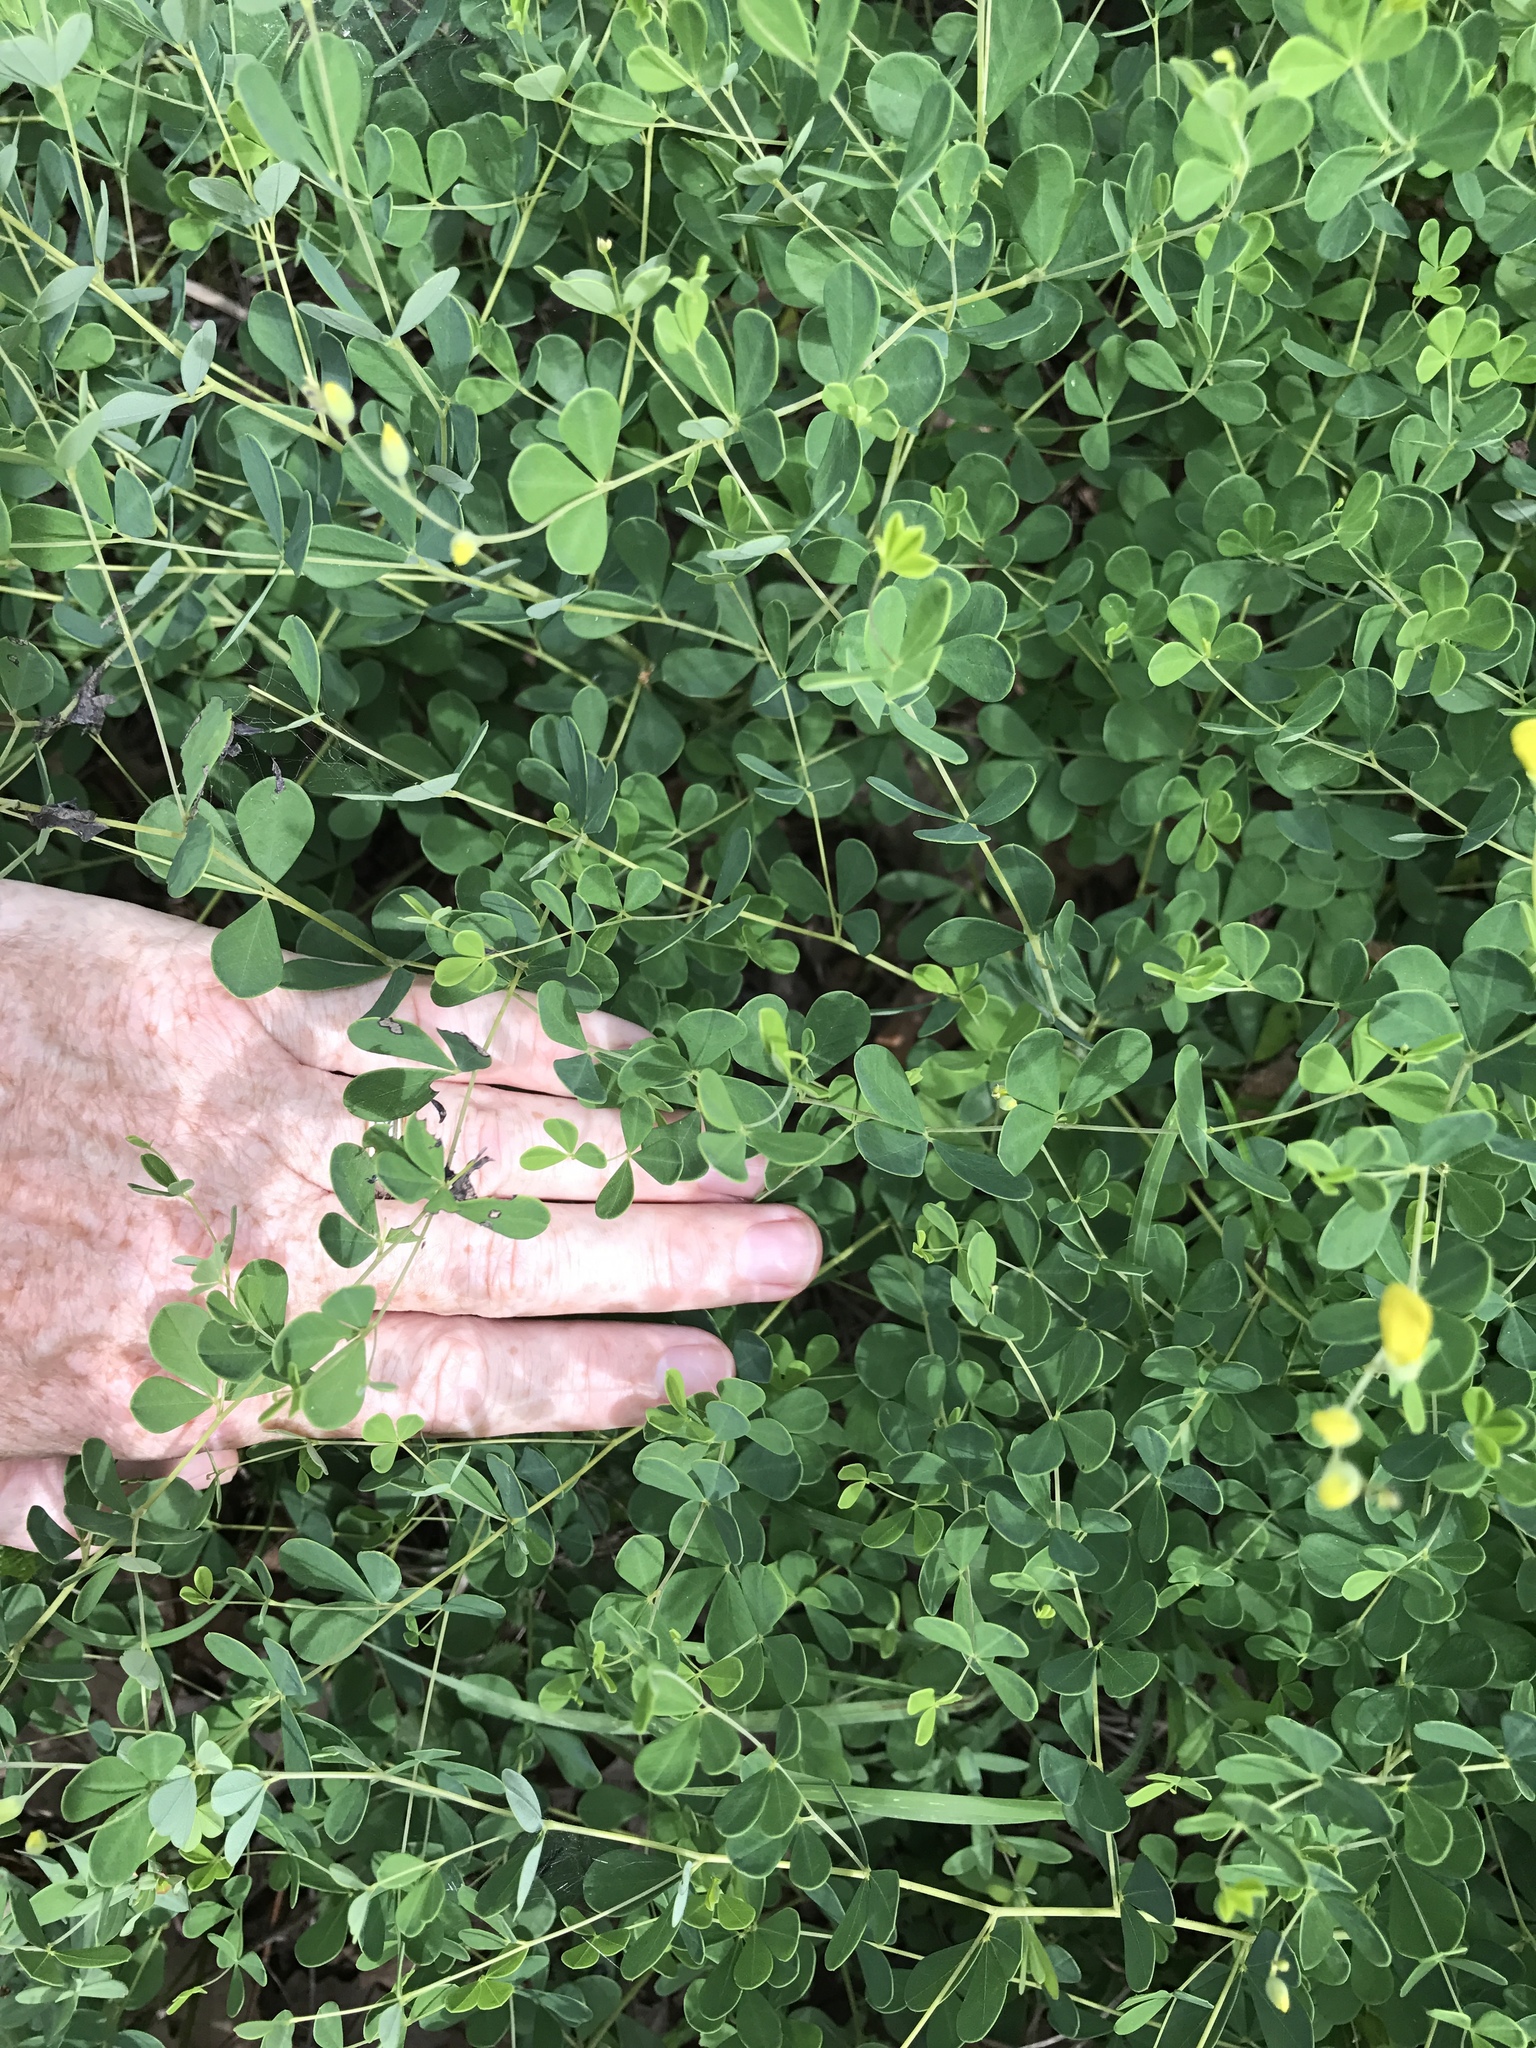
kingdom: Plantae
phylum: Tracheophyta
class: Magnoliopsida
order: Fabales
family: Fabaceae
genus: Baptisia
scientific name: Baptisia tinctoria
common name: Wild indigo
